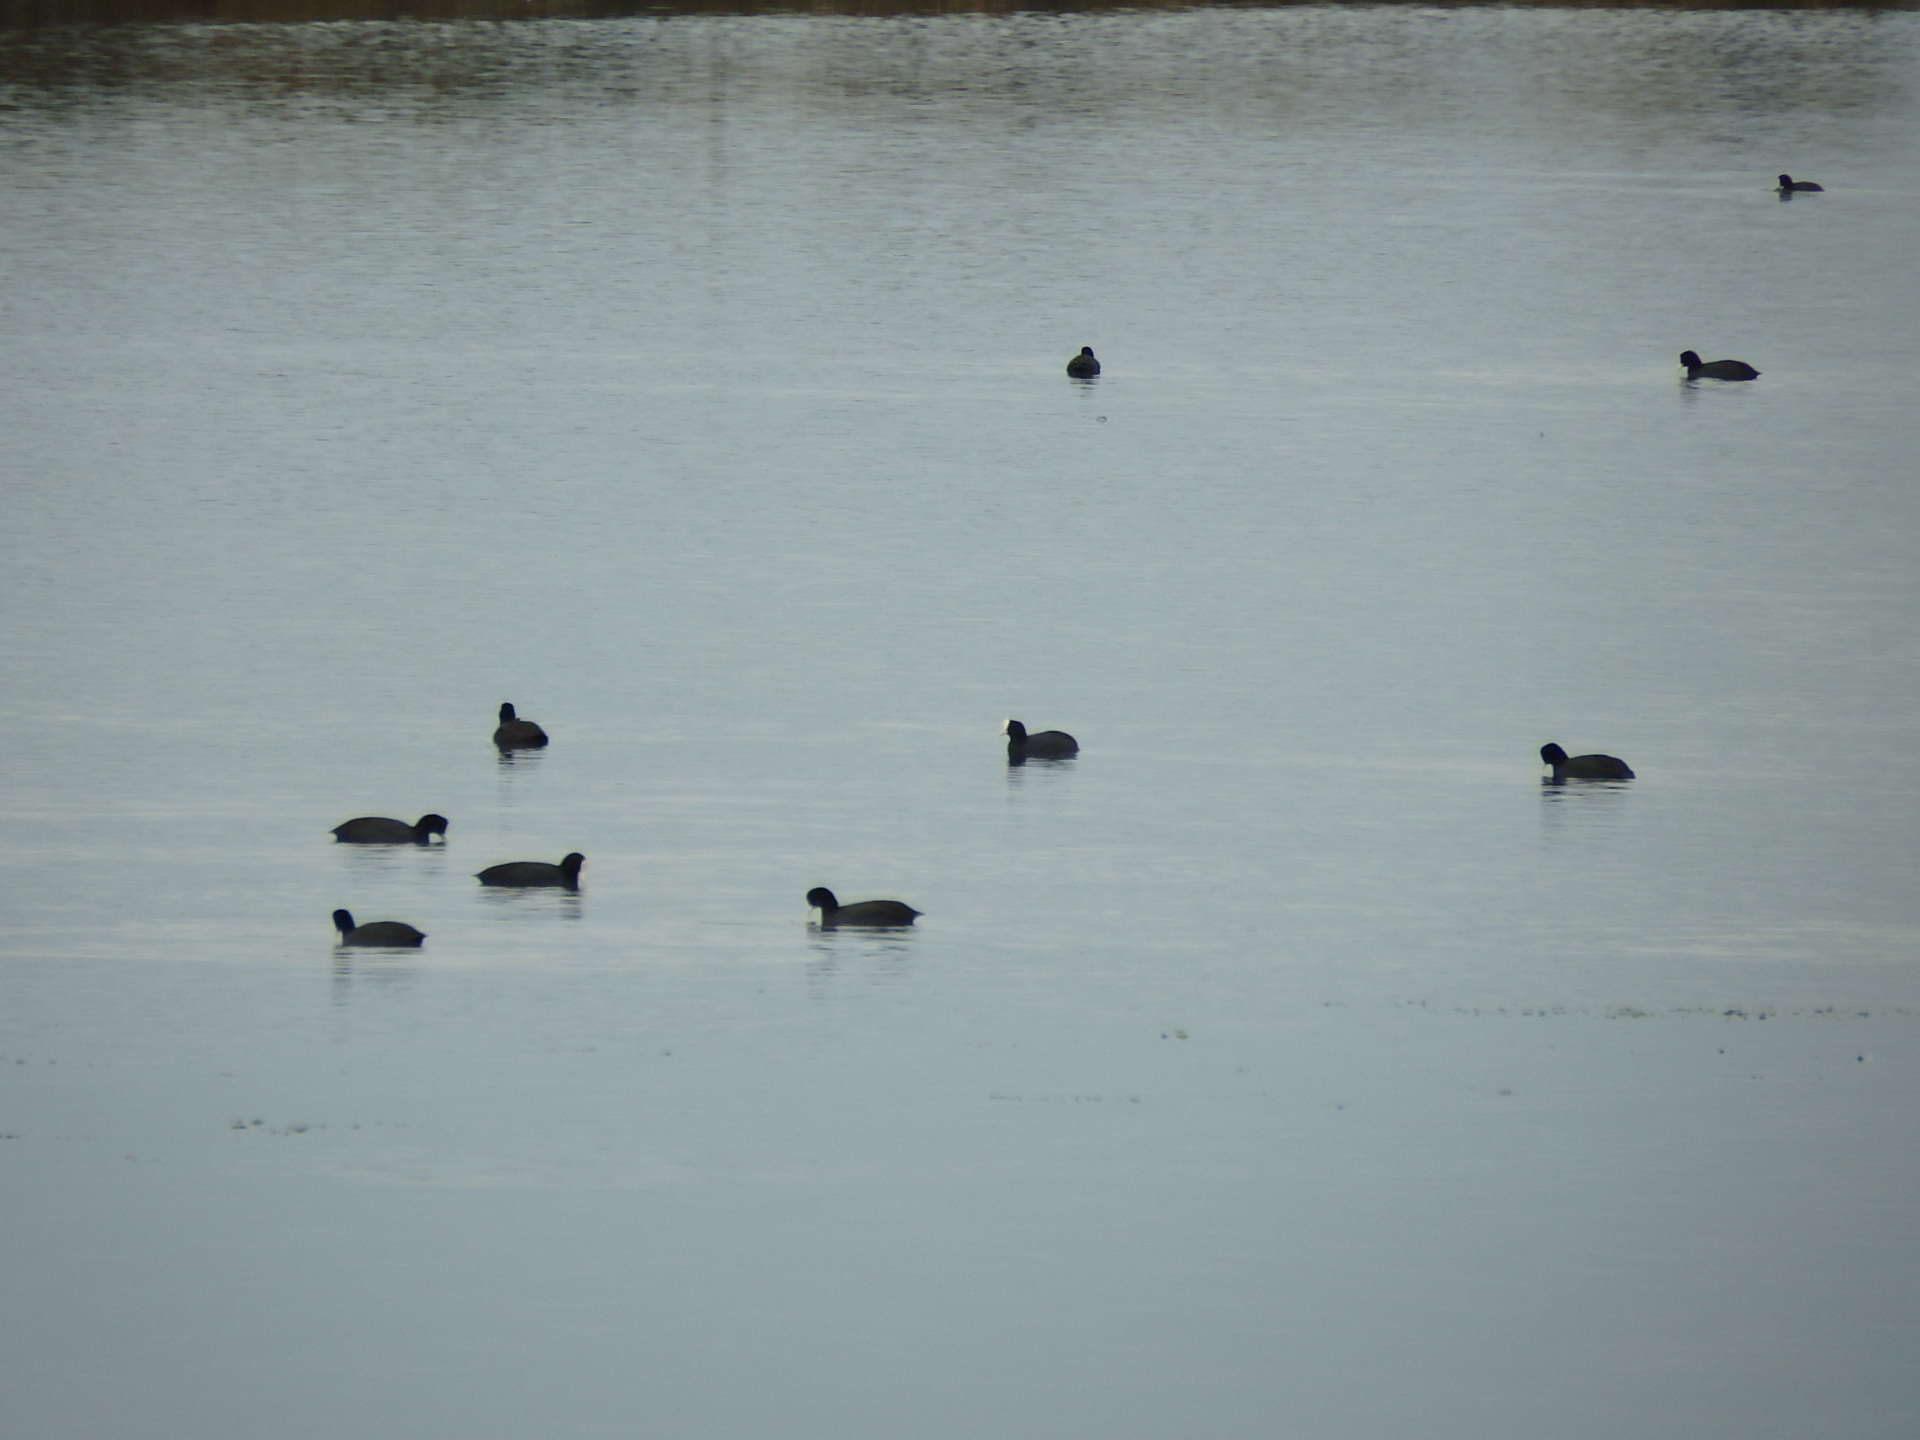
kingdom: Animalia
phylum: Chordata
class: Aves
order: Gruiformes
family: Rallidae
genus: Fulica
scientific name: Fulica atra
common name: Eurasian coot
